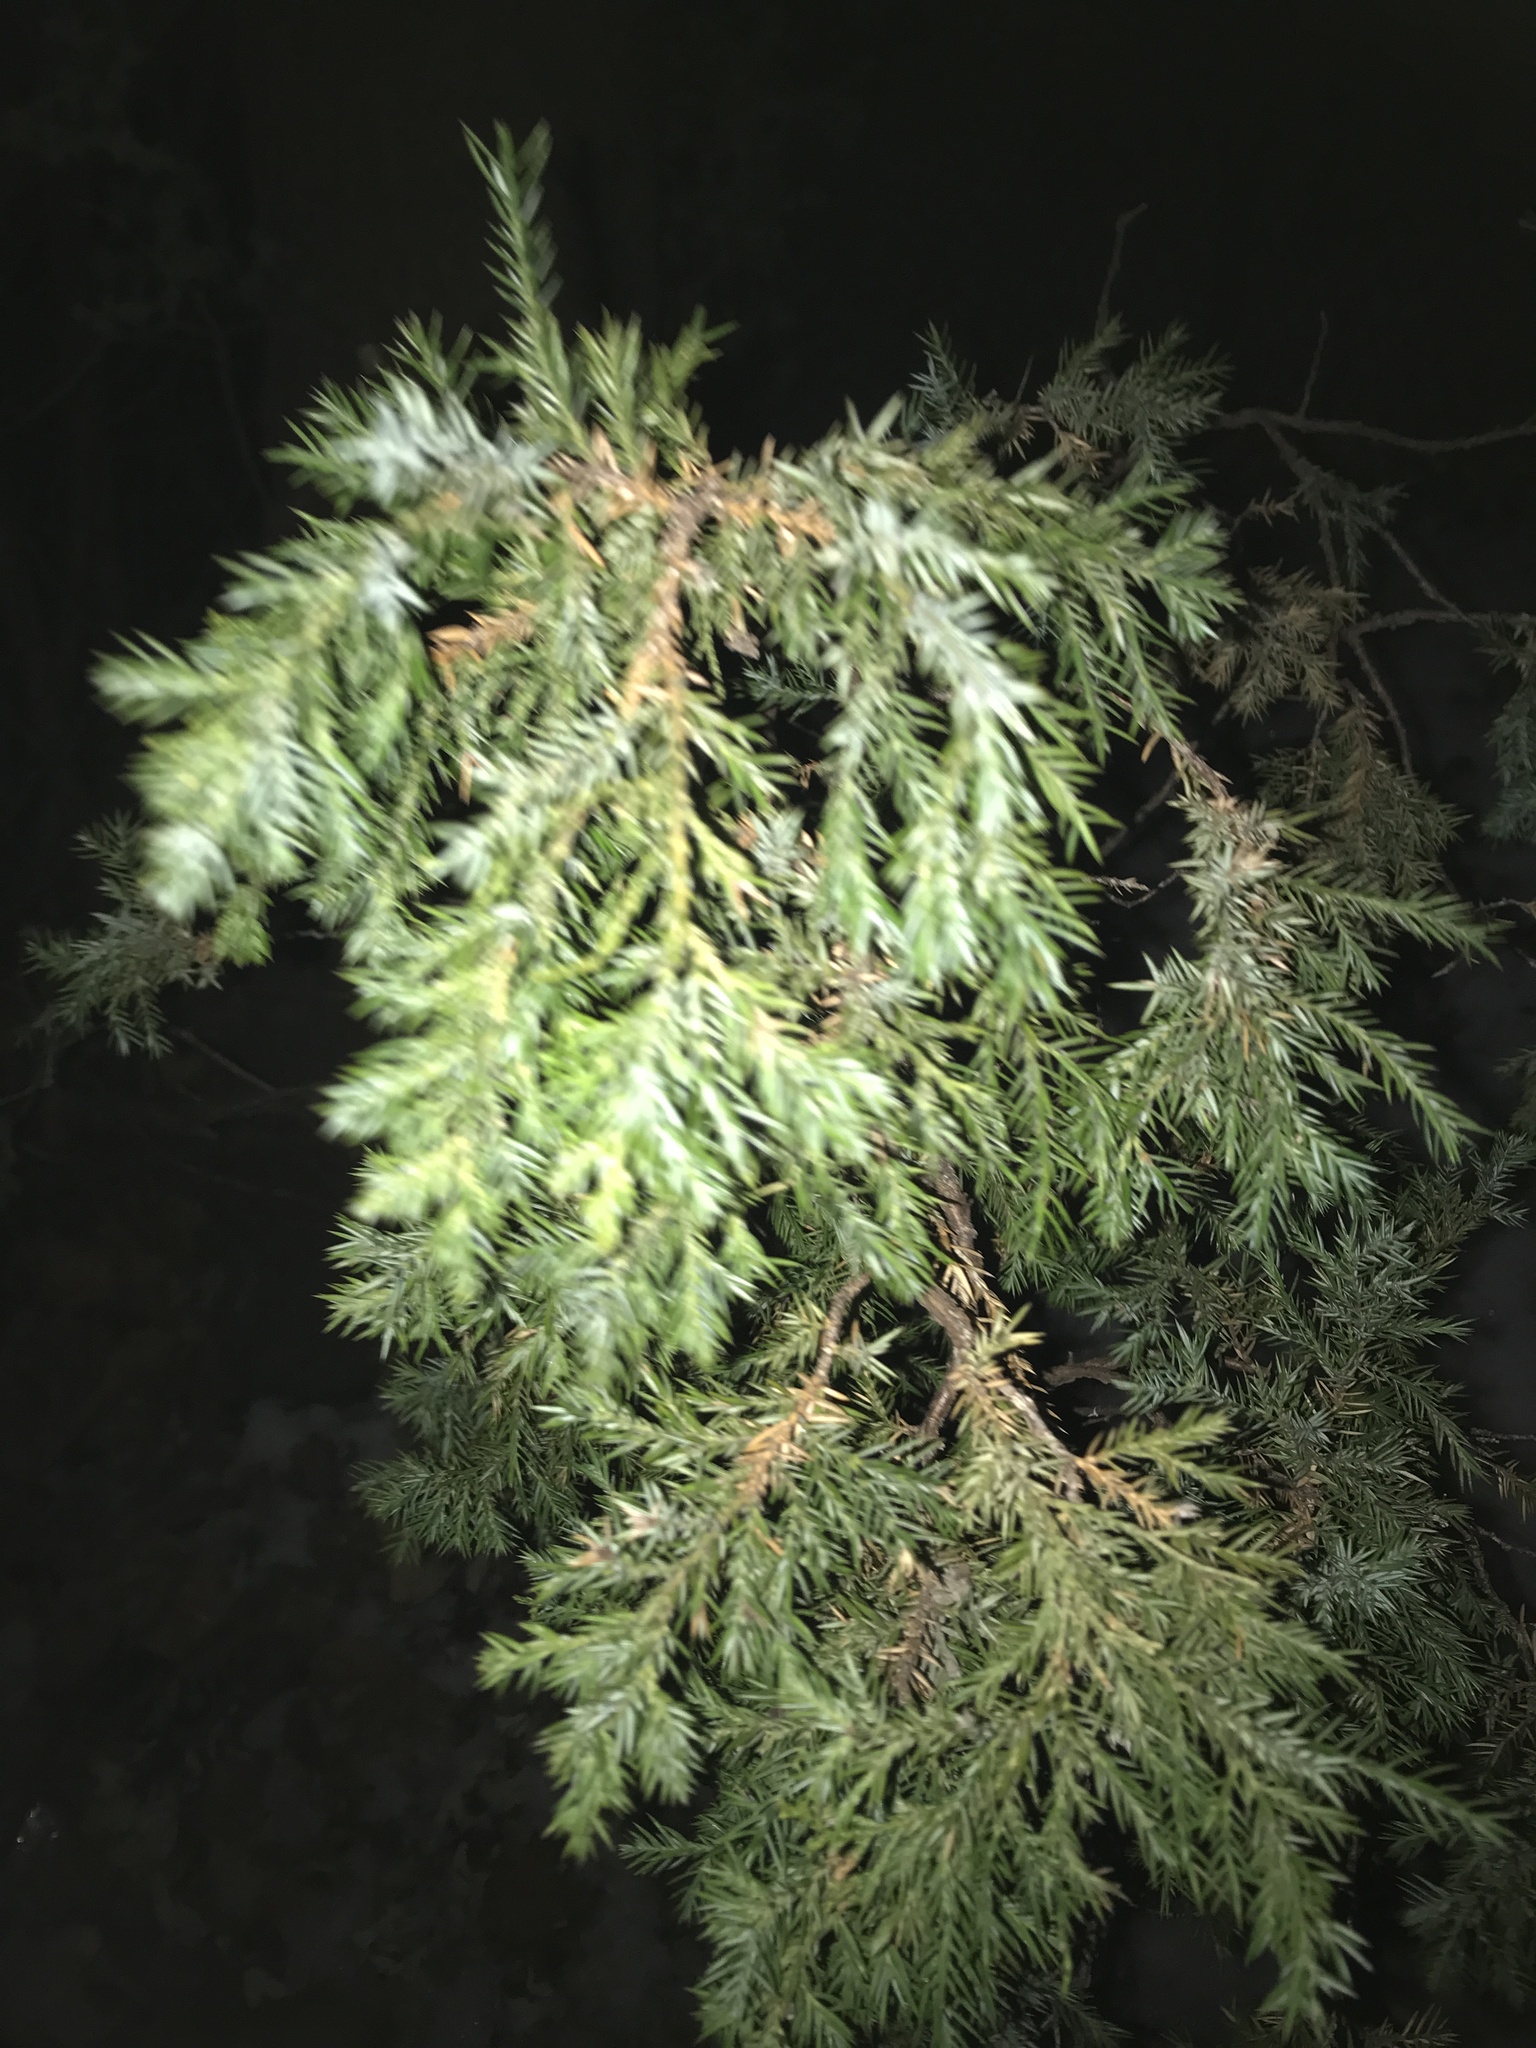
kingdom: Plantae
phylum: Tracheophyta
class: Pinopsida
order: Pinales
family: Cupressaceae
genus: Juniperus
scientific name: Juniperus virginiana
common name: Red juniper
